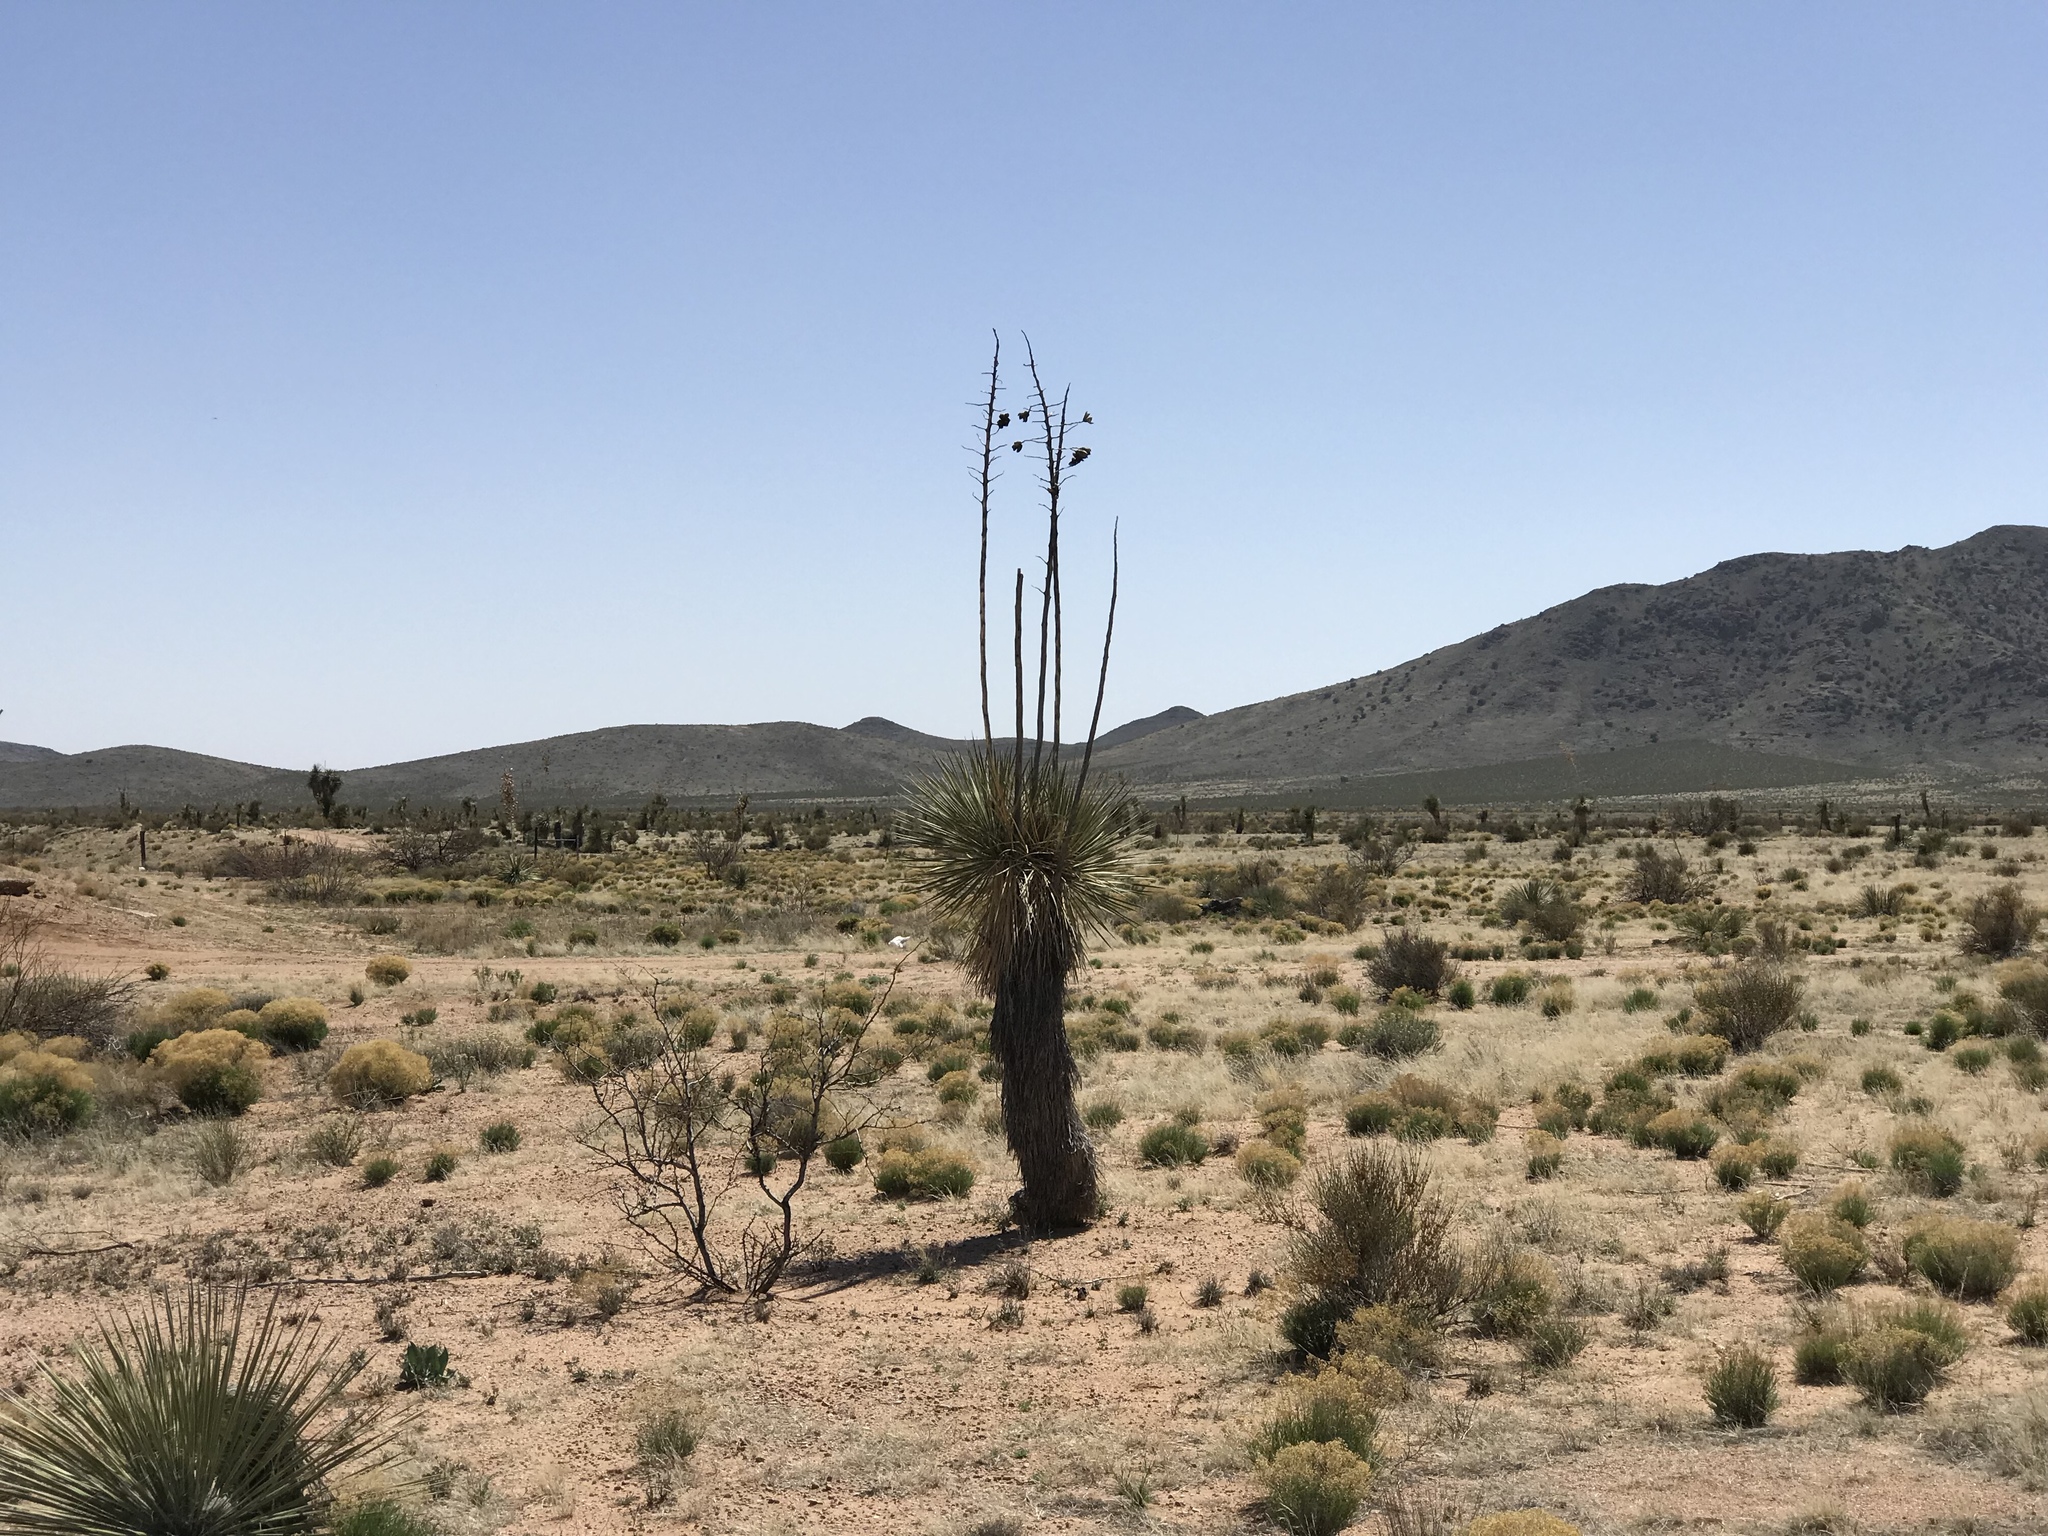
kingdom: Plantae
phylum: Tracheophyta
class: Liliopsida
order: Asparagales
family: Asparagaceae
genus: Yucca
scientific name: Yucca elata
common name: Palmella
